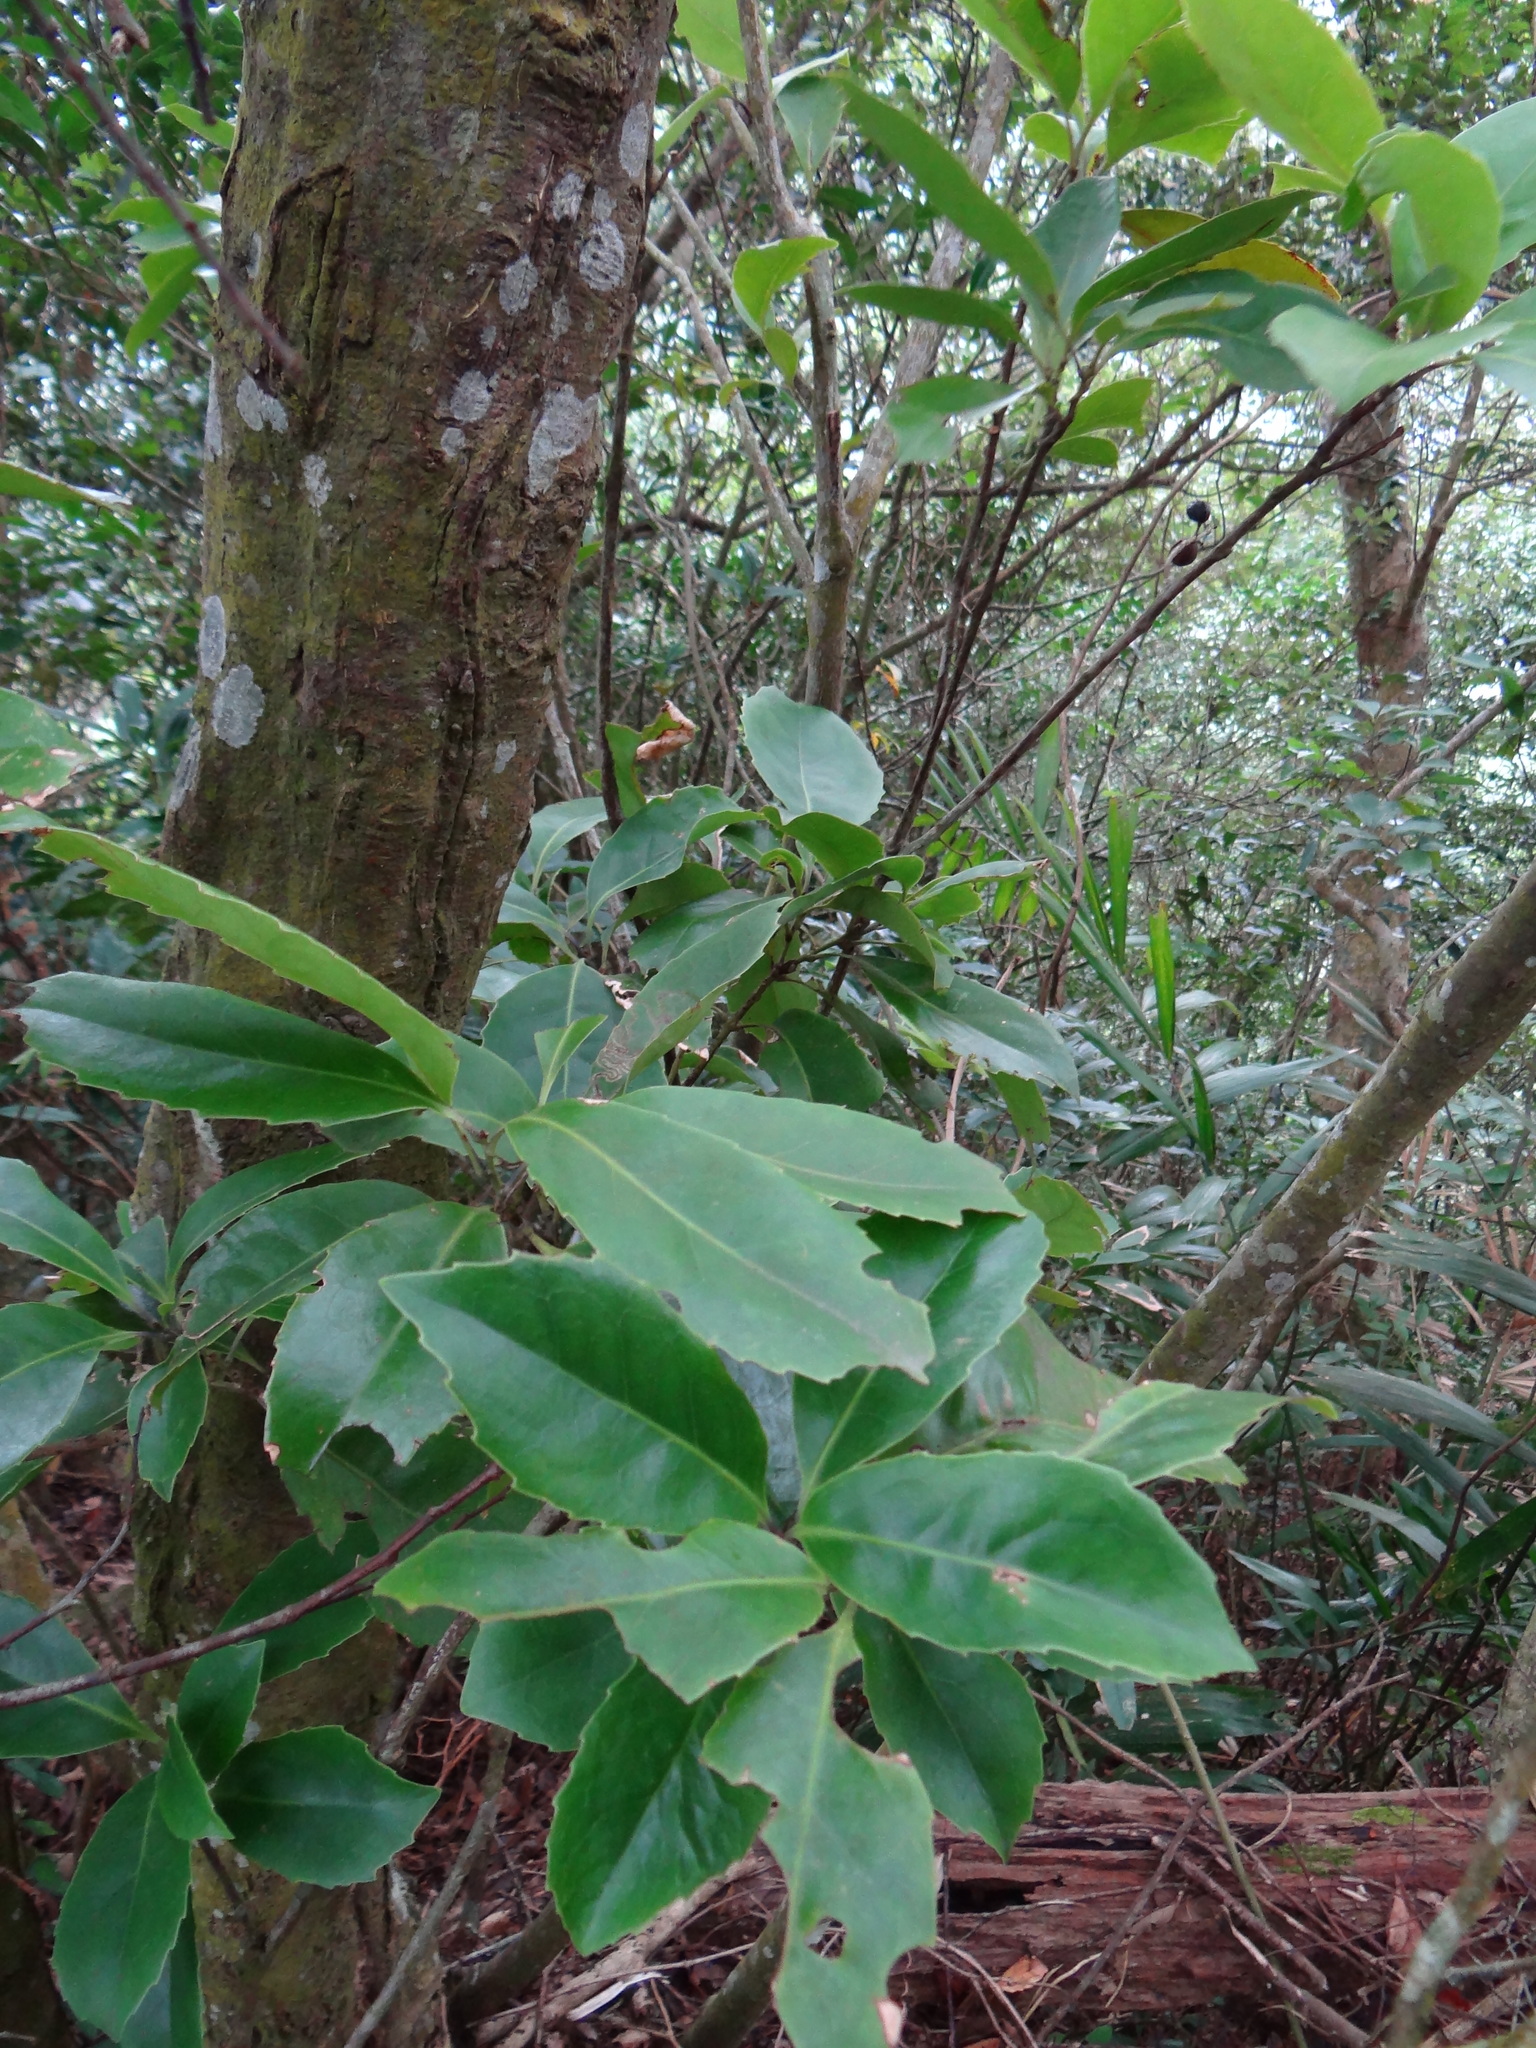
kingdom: Plantae
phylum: Tracheophyta
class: Magnoliopsida
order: Proteales
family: Proteaceae
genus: Helicia
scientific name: Helicia rengetiensis
